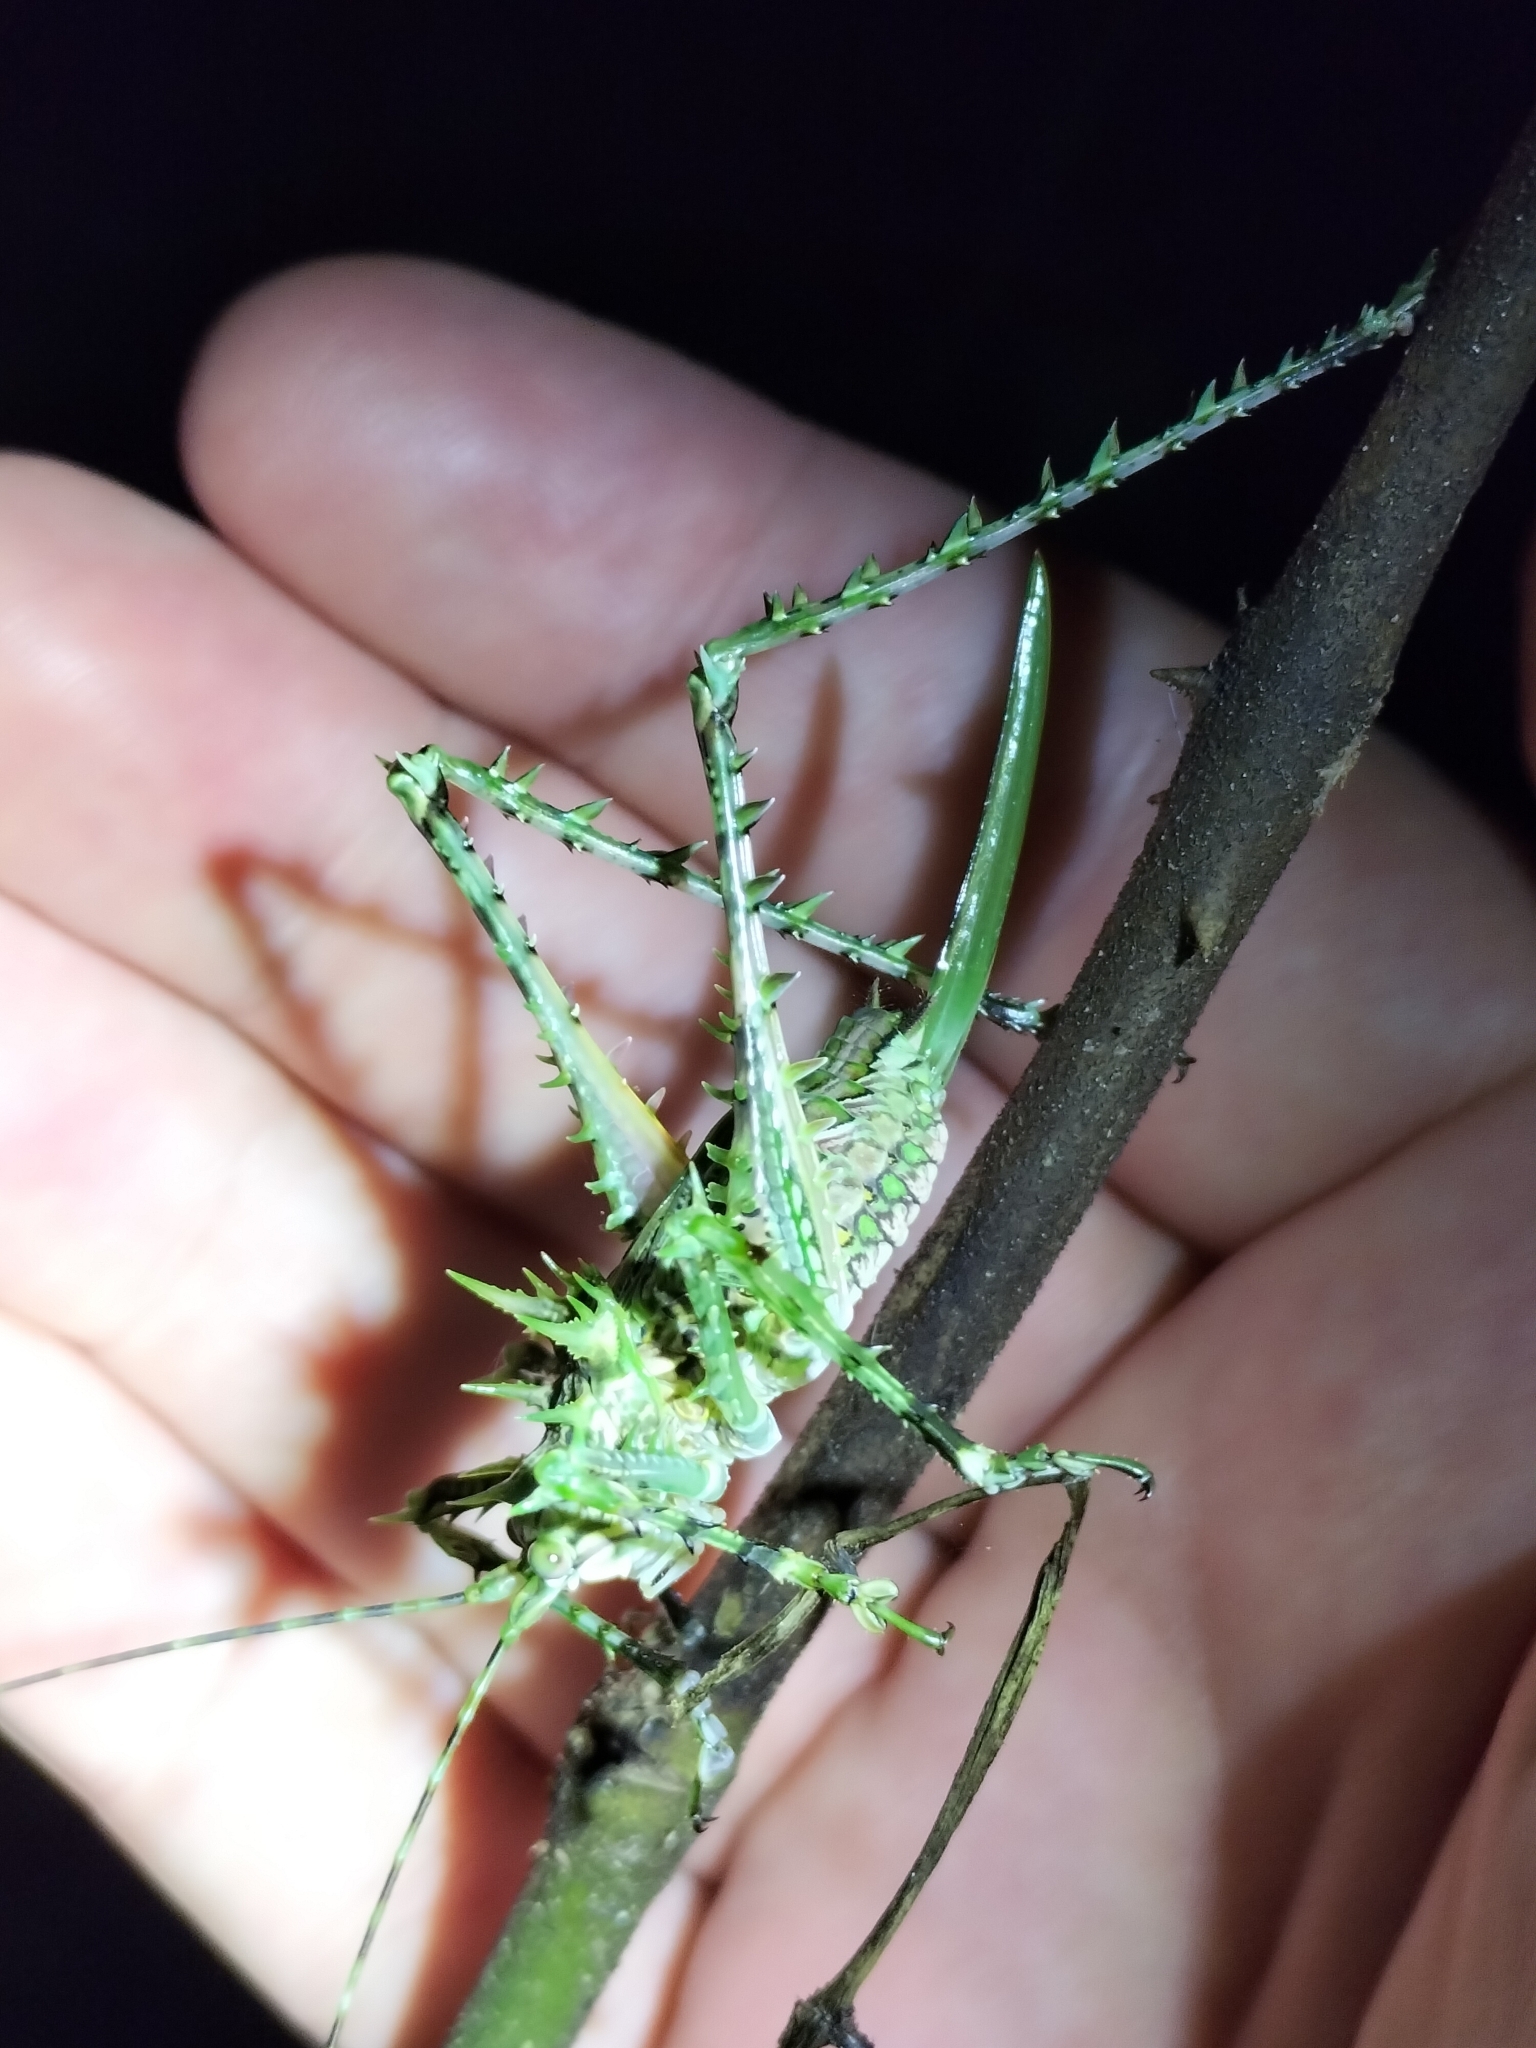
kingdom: Animalia
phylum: Arthropoda
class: Insecta
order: Orthoptera
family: Tettigoniidae
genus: Phricta
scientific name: Phricta tortuwallina
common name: Silent spiny katydid
